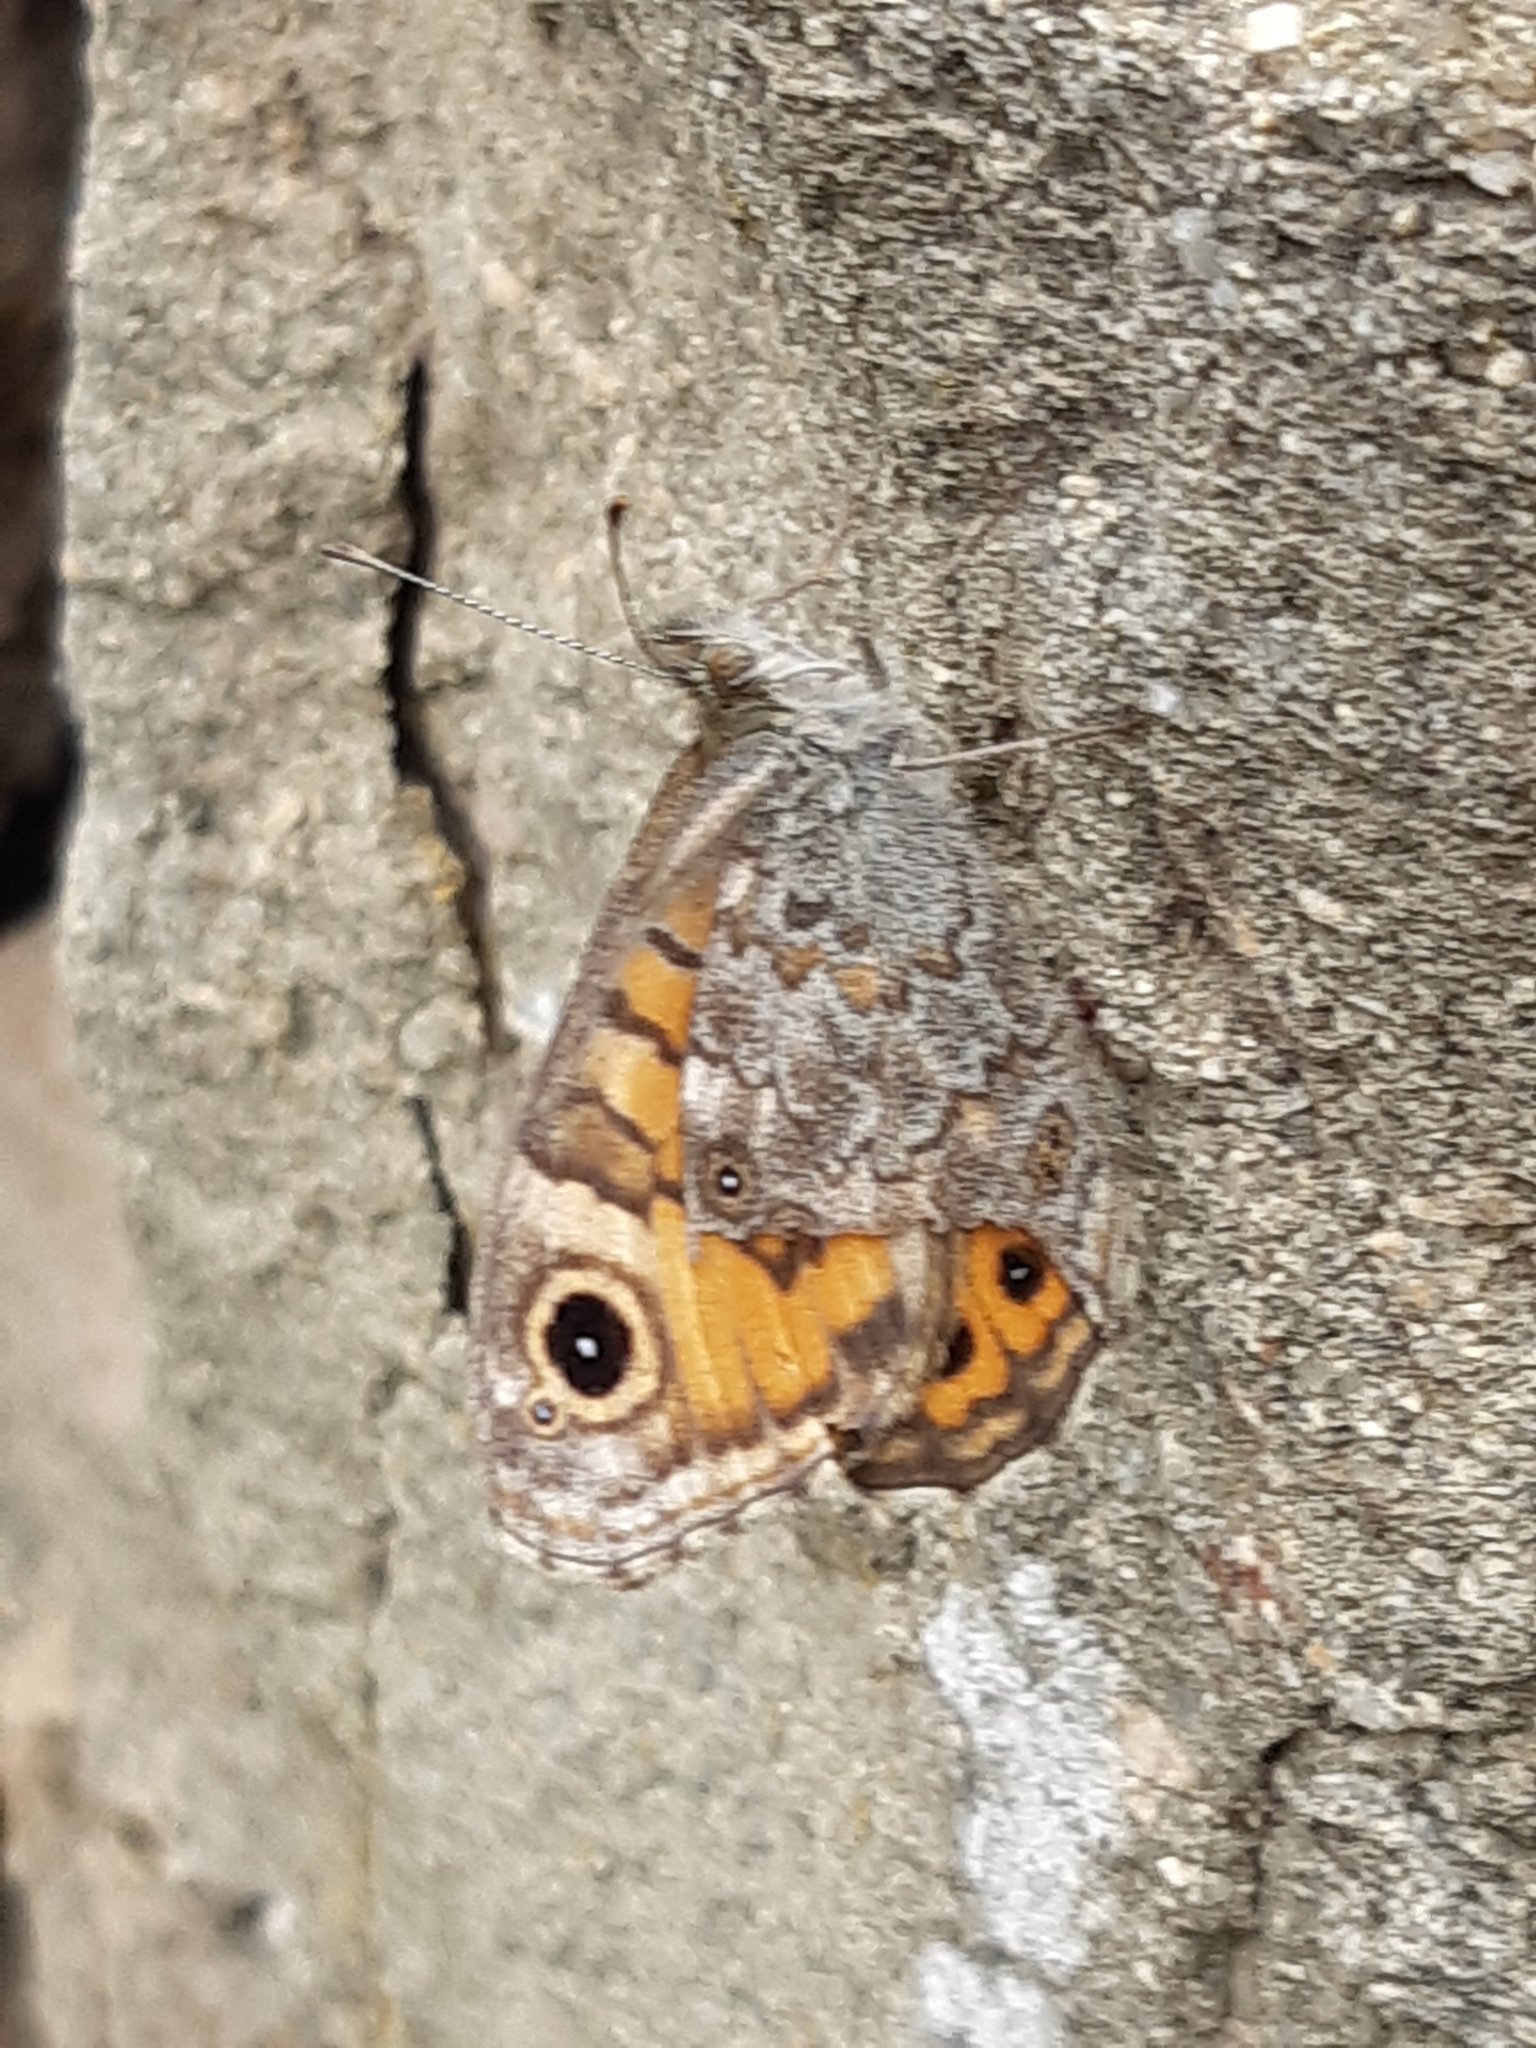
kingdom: Animalia
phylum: Arthropoda
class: Insecta
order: Lepidoptera
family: Nymphalidae
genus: Pararge
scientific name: Pararge Lasiommata megera
